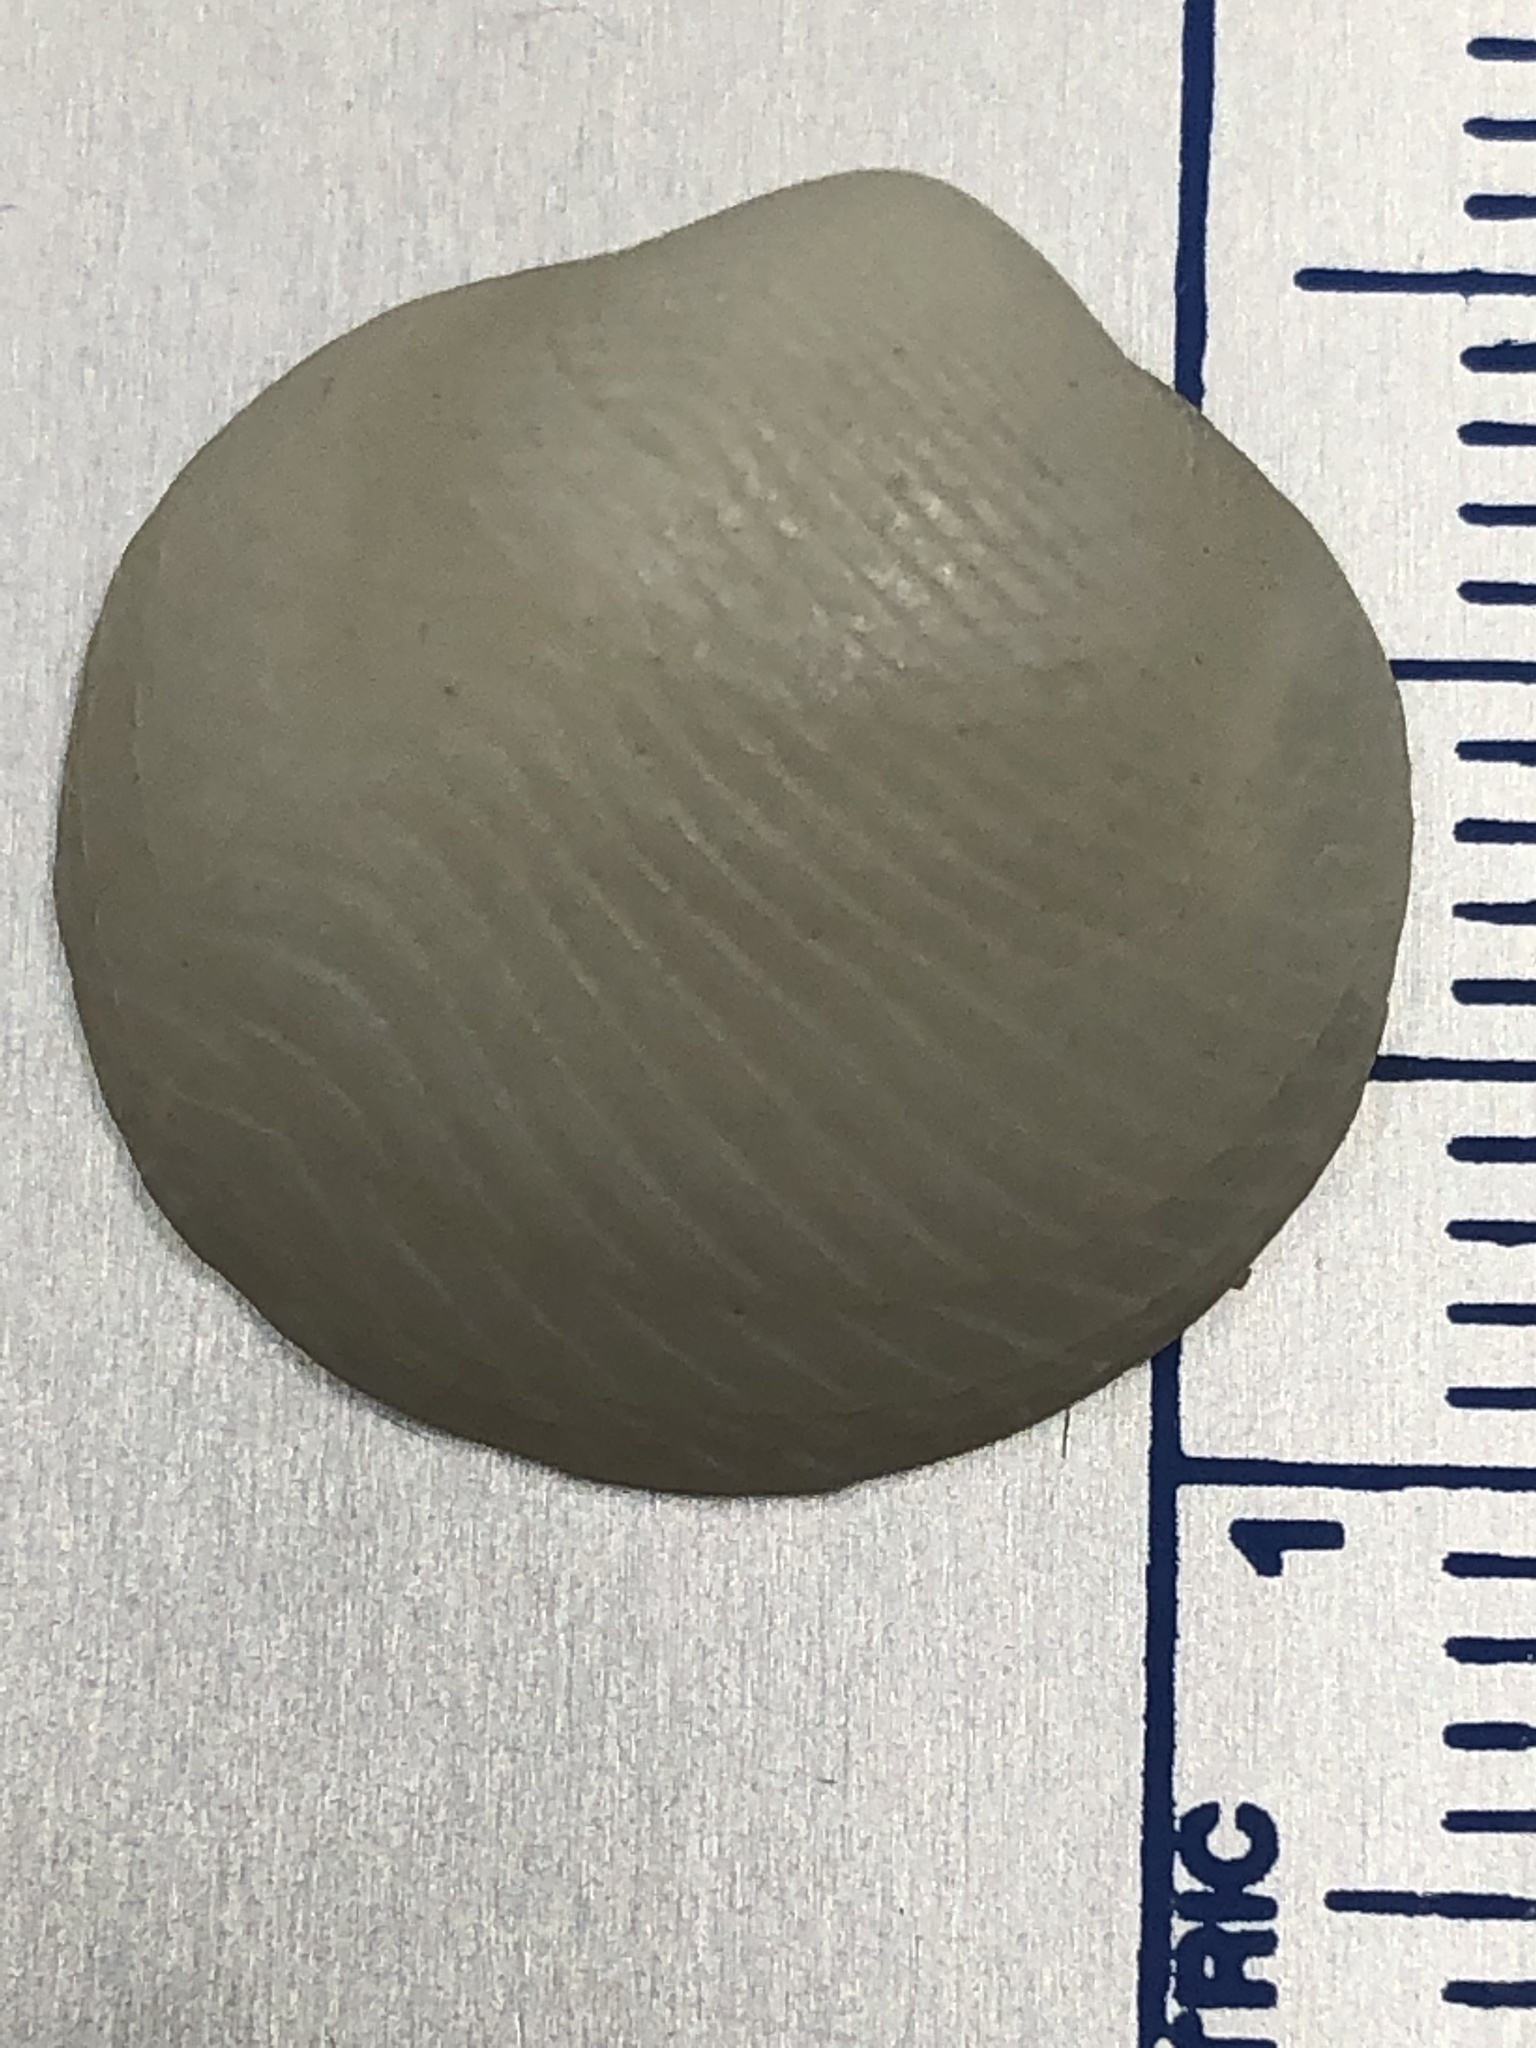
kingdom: Animalia
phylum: Mollusca
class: Bivalvia
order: Lucinida
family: Lucinidae
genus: Divalinga
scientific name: Divalinga quadrisulcata
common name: Cross-hatched lucine
